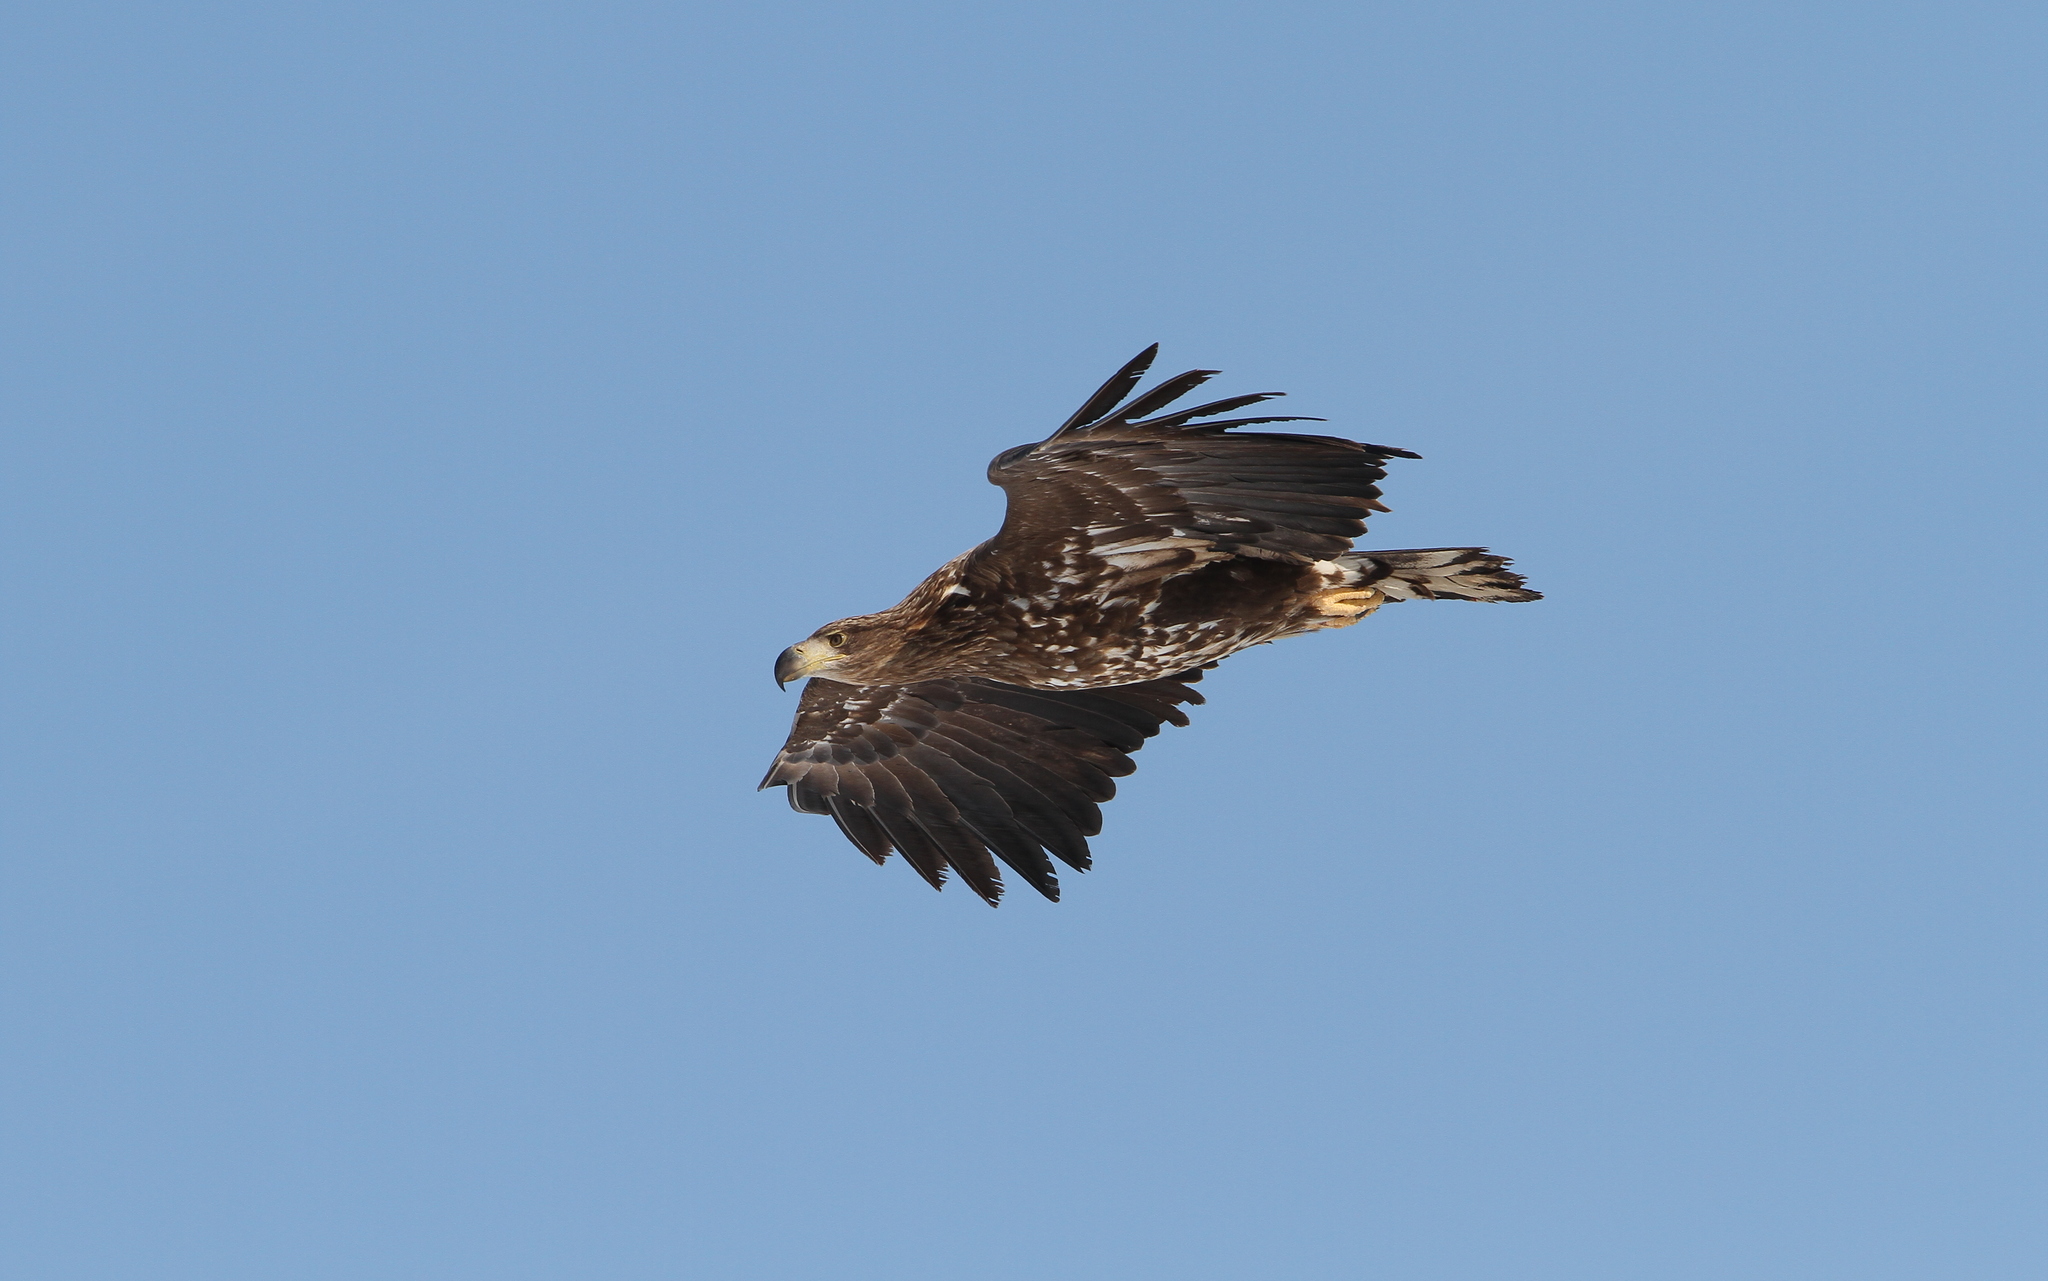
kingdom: Animalia
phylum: Chordata
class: Aves
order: Accipitriformes
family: Accipitridae
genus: Haliaeetus
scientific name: Haliaeetus albicilla
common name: White-tailed eagle
